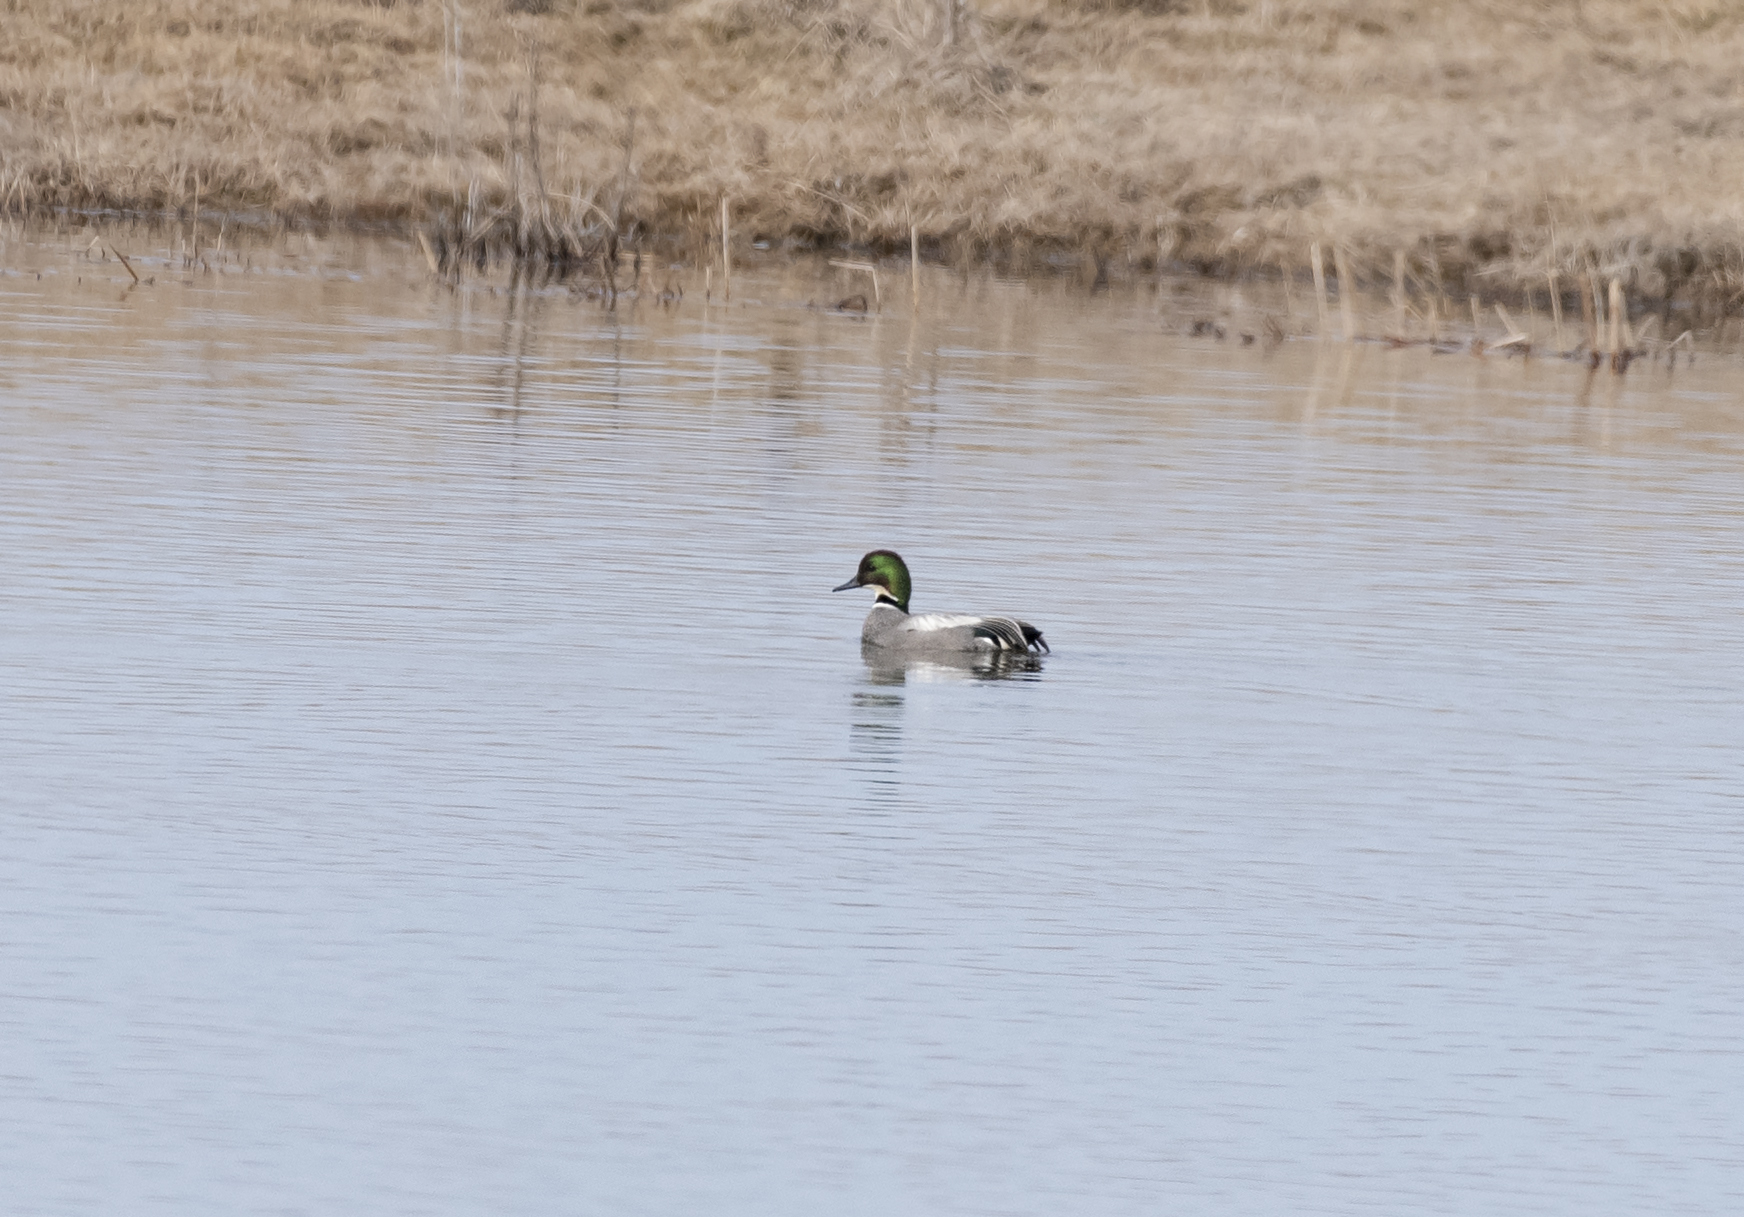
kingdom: Animalia
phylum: Chordata
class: Aves
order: Anseriformes
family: Anatidae
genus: Mareca
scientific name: Mareca falcata
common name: Falcated duck
